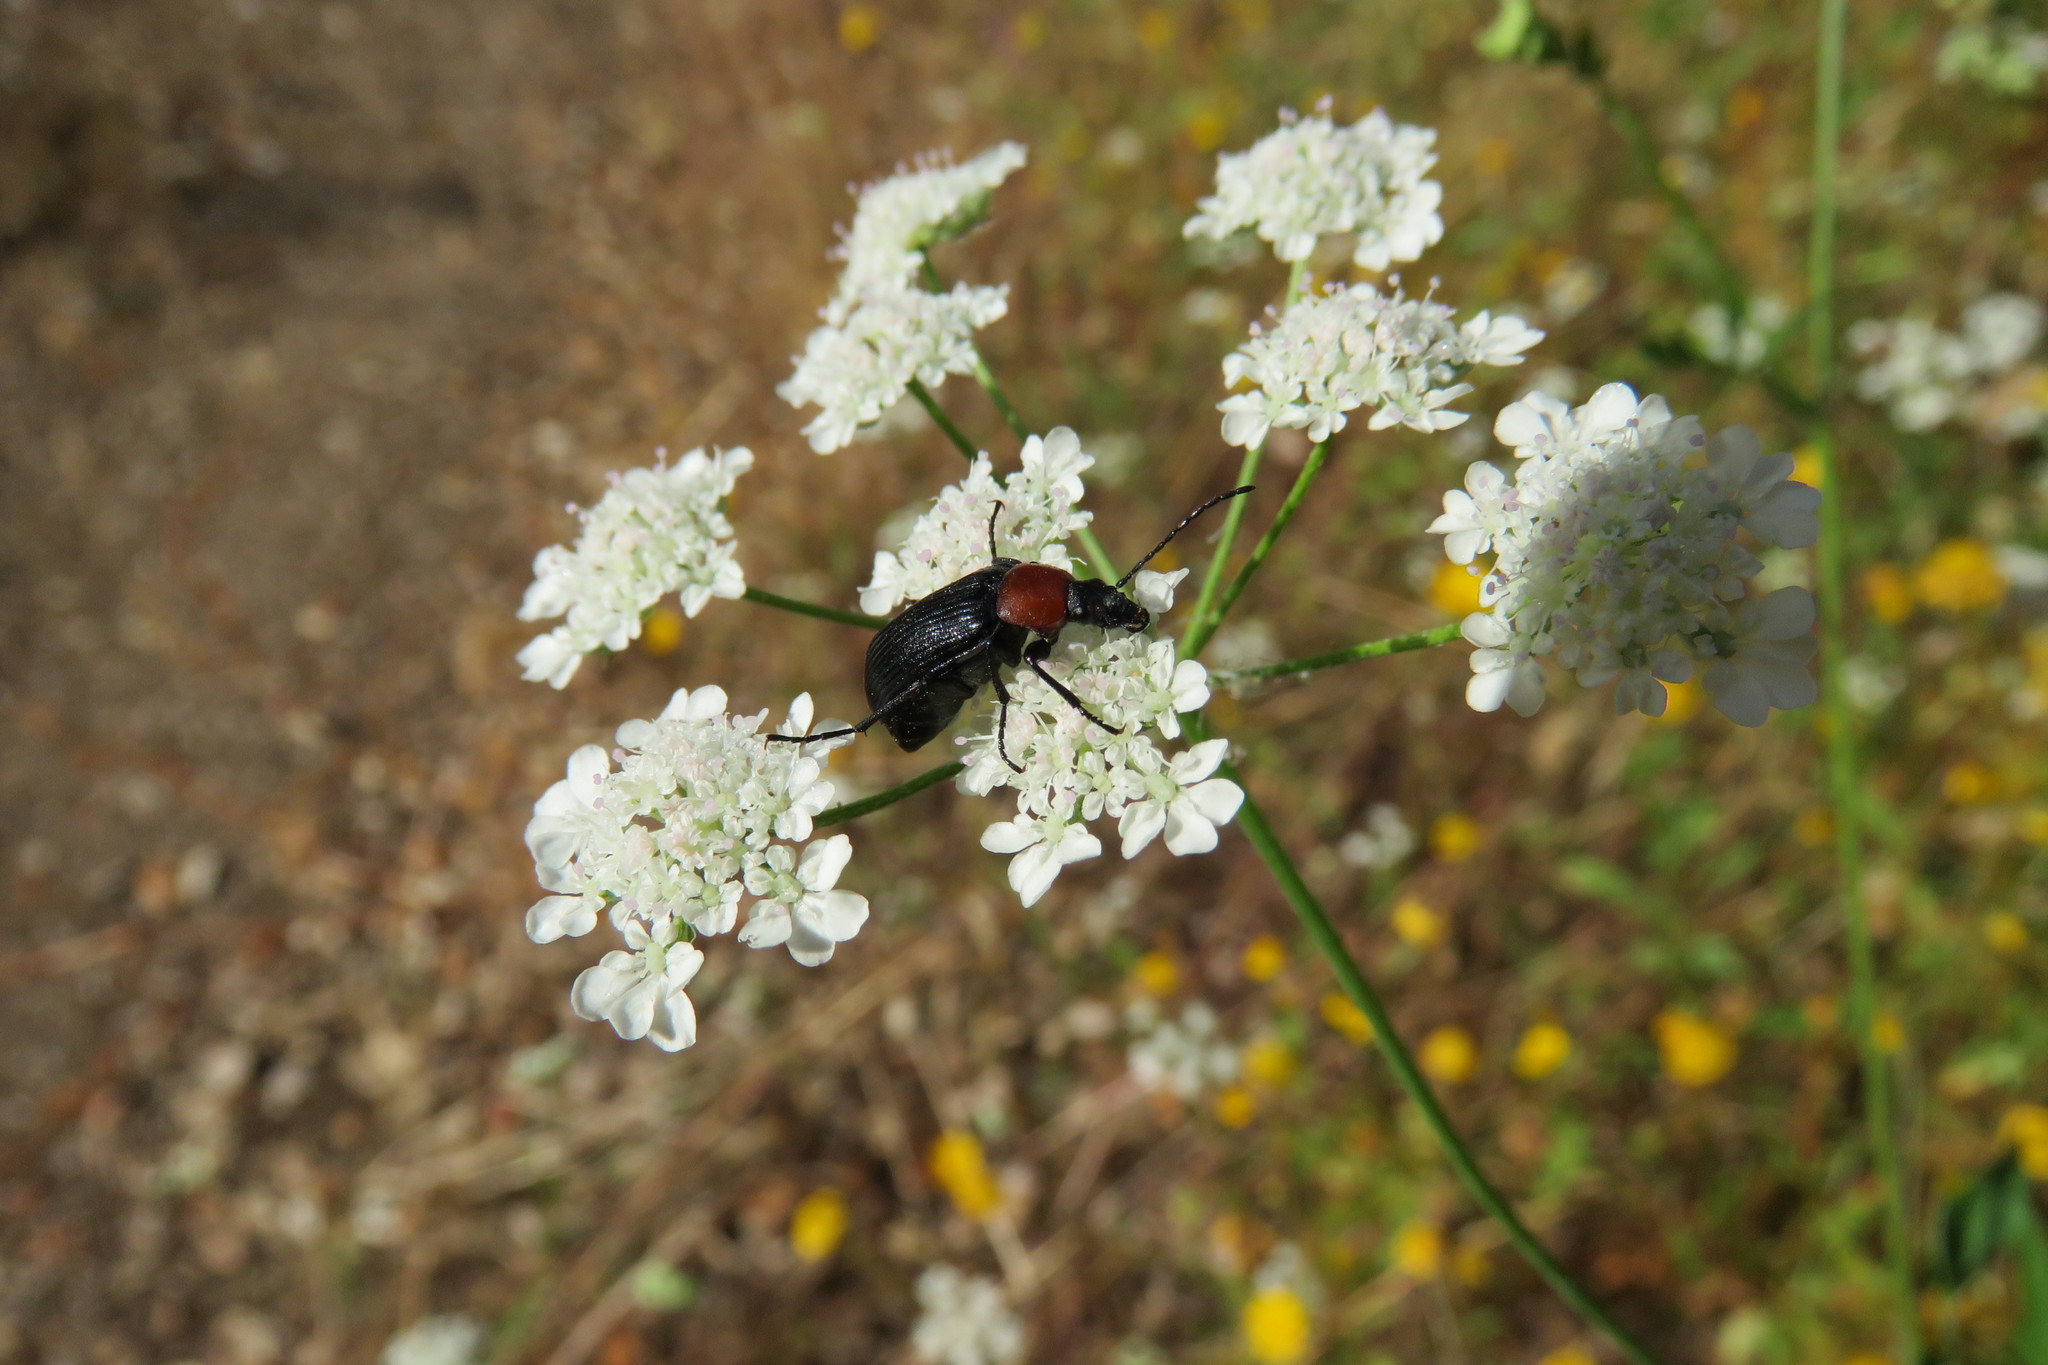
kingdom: Animalia
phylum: Arthropoda
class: Insecta
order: Coleoptera
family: Tenebrionidae
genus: Heliotaurus
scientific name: Heliotaurus ruficollis
